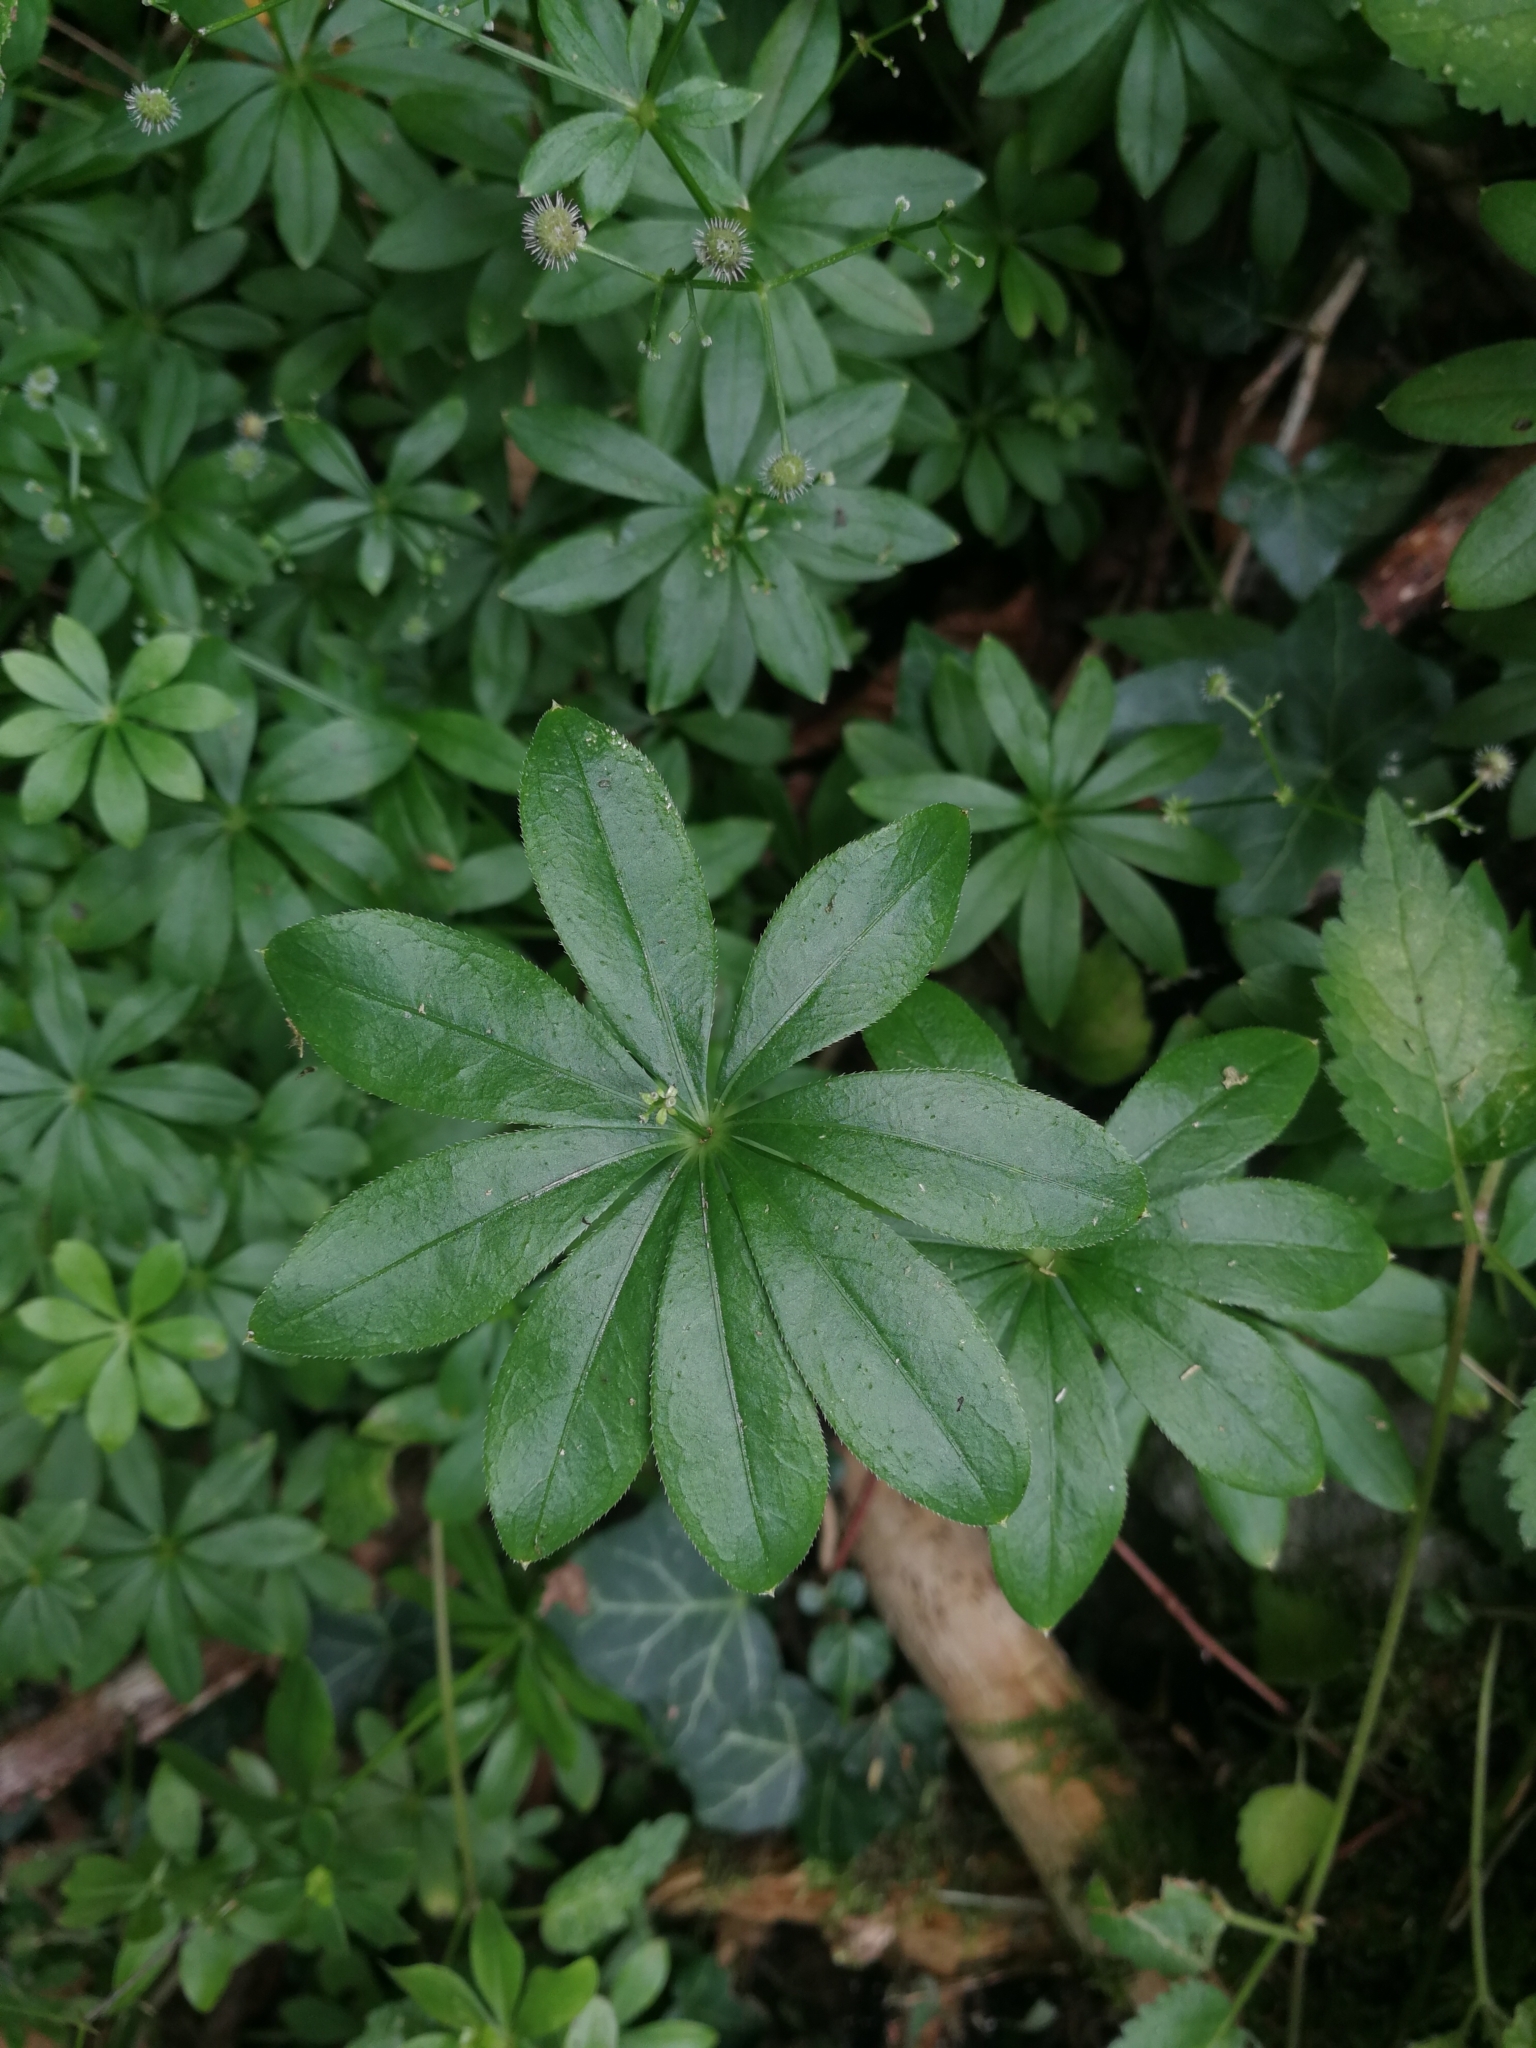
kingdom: Plantae
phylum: Tracheophyta
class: Magnoliopsida
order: Gentianales
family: Rubiaceae
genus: Galium
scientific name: Galium odoratum
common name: Sweet woodruff
